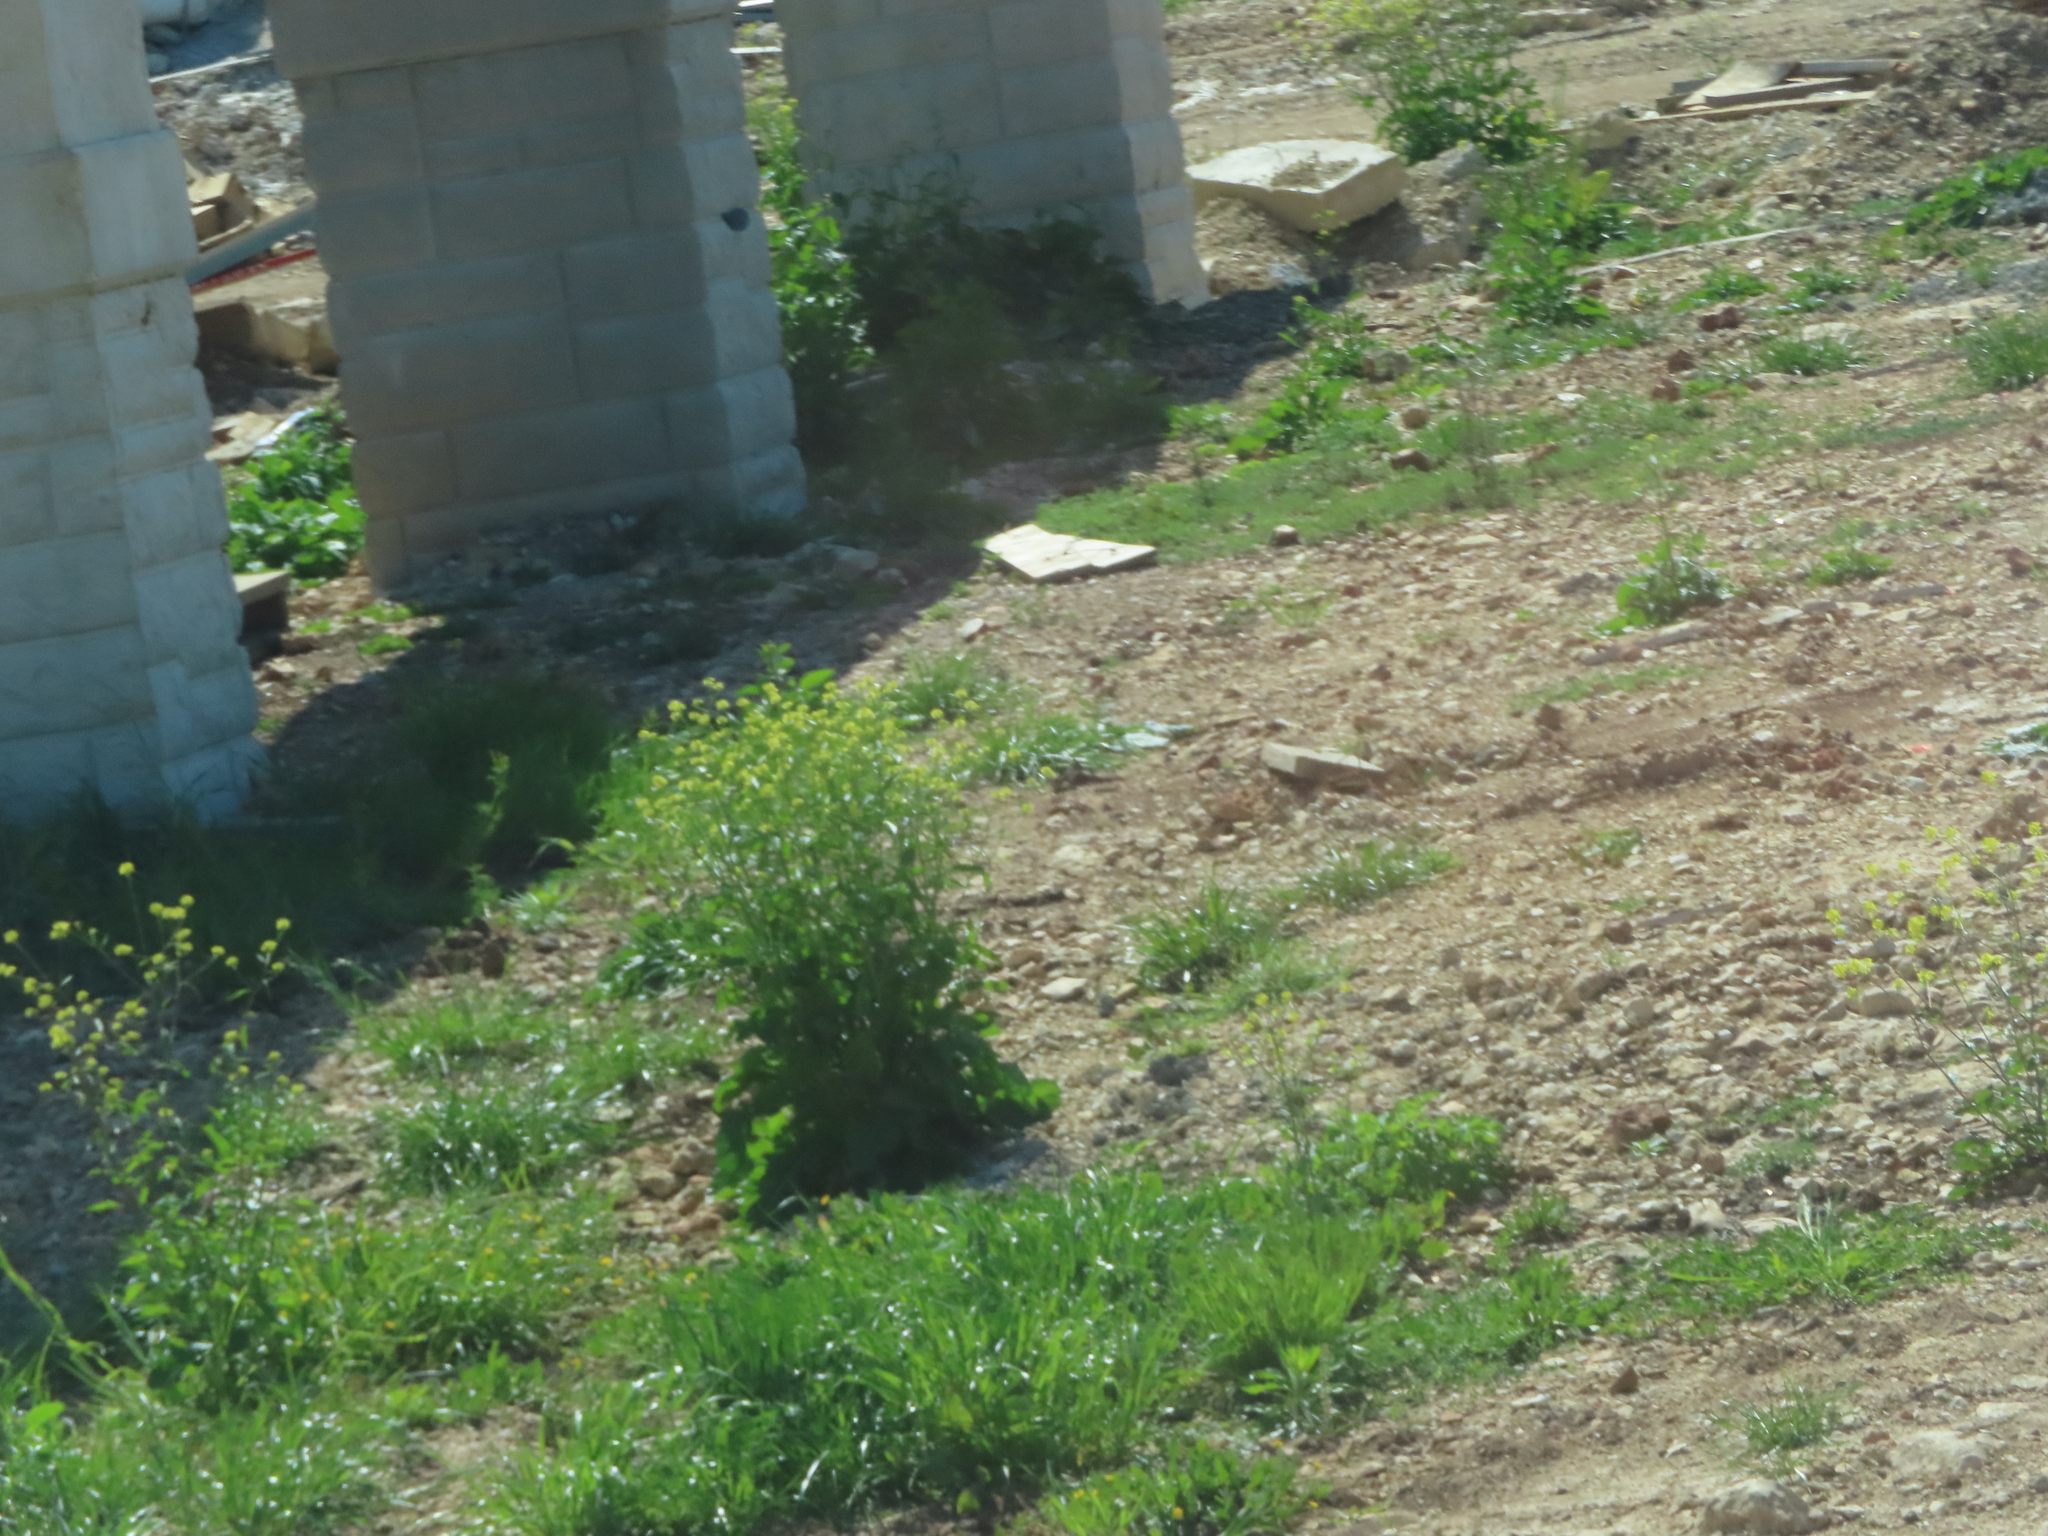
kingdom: Plantae
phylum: Tracheophyta
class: Magnoliopsida
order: Brassicales
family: Brassicaceae
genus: Rapistrum
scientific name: Rapistrum rugosum
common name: Annual bastardcabbage
